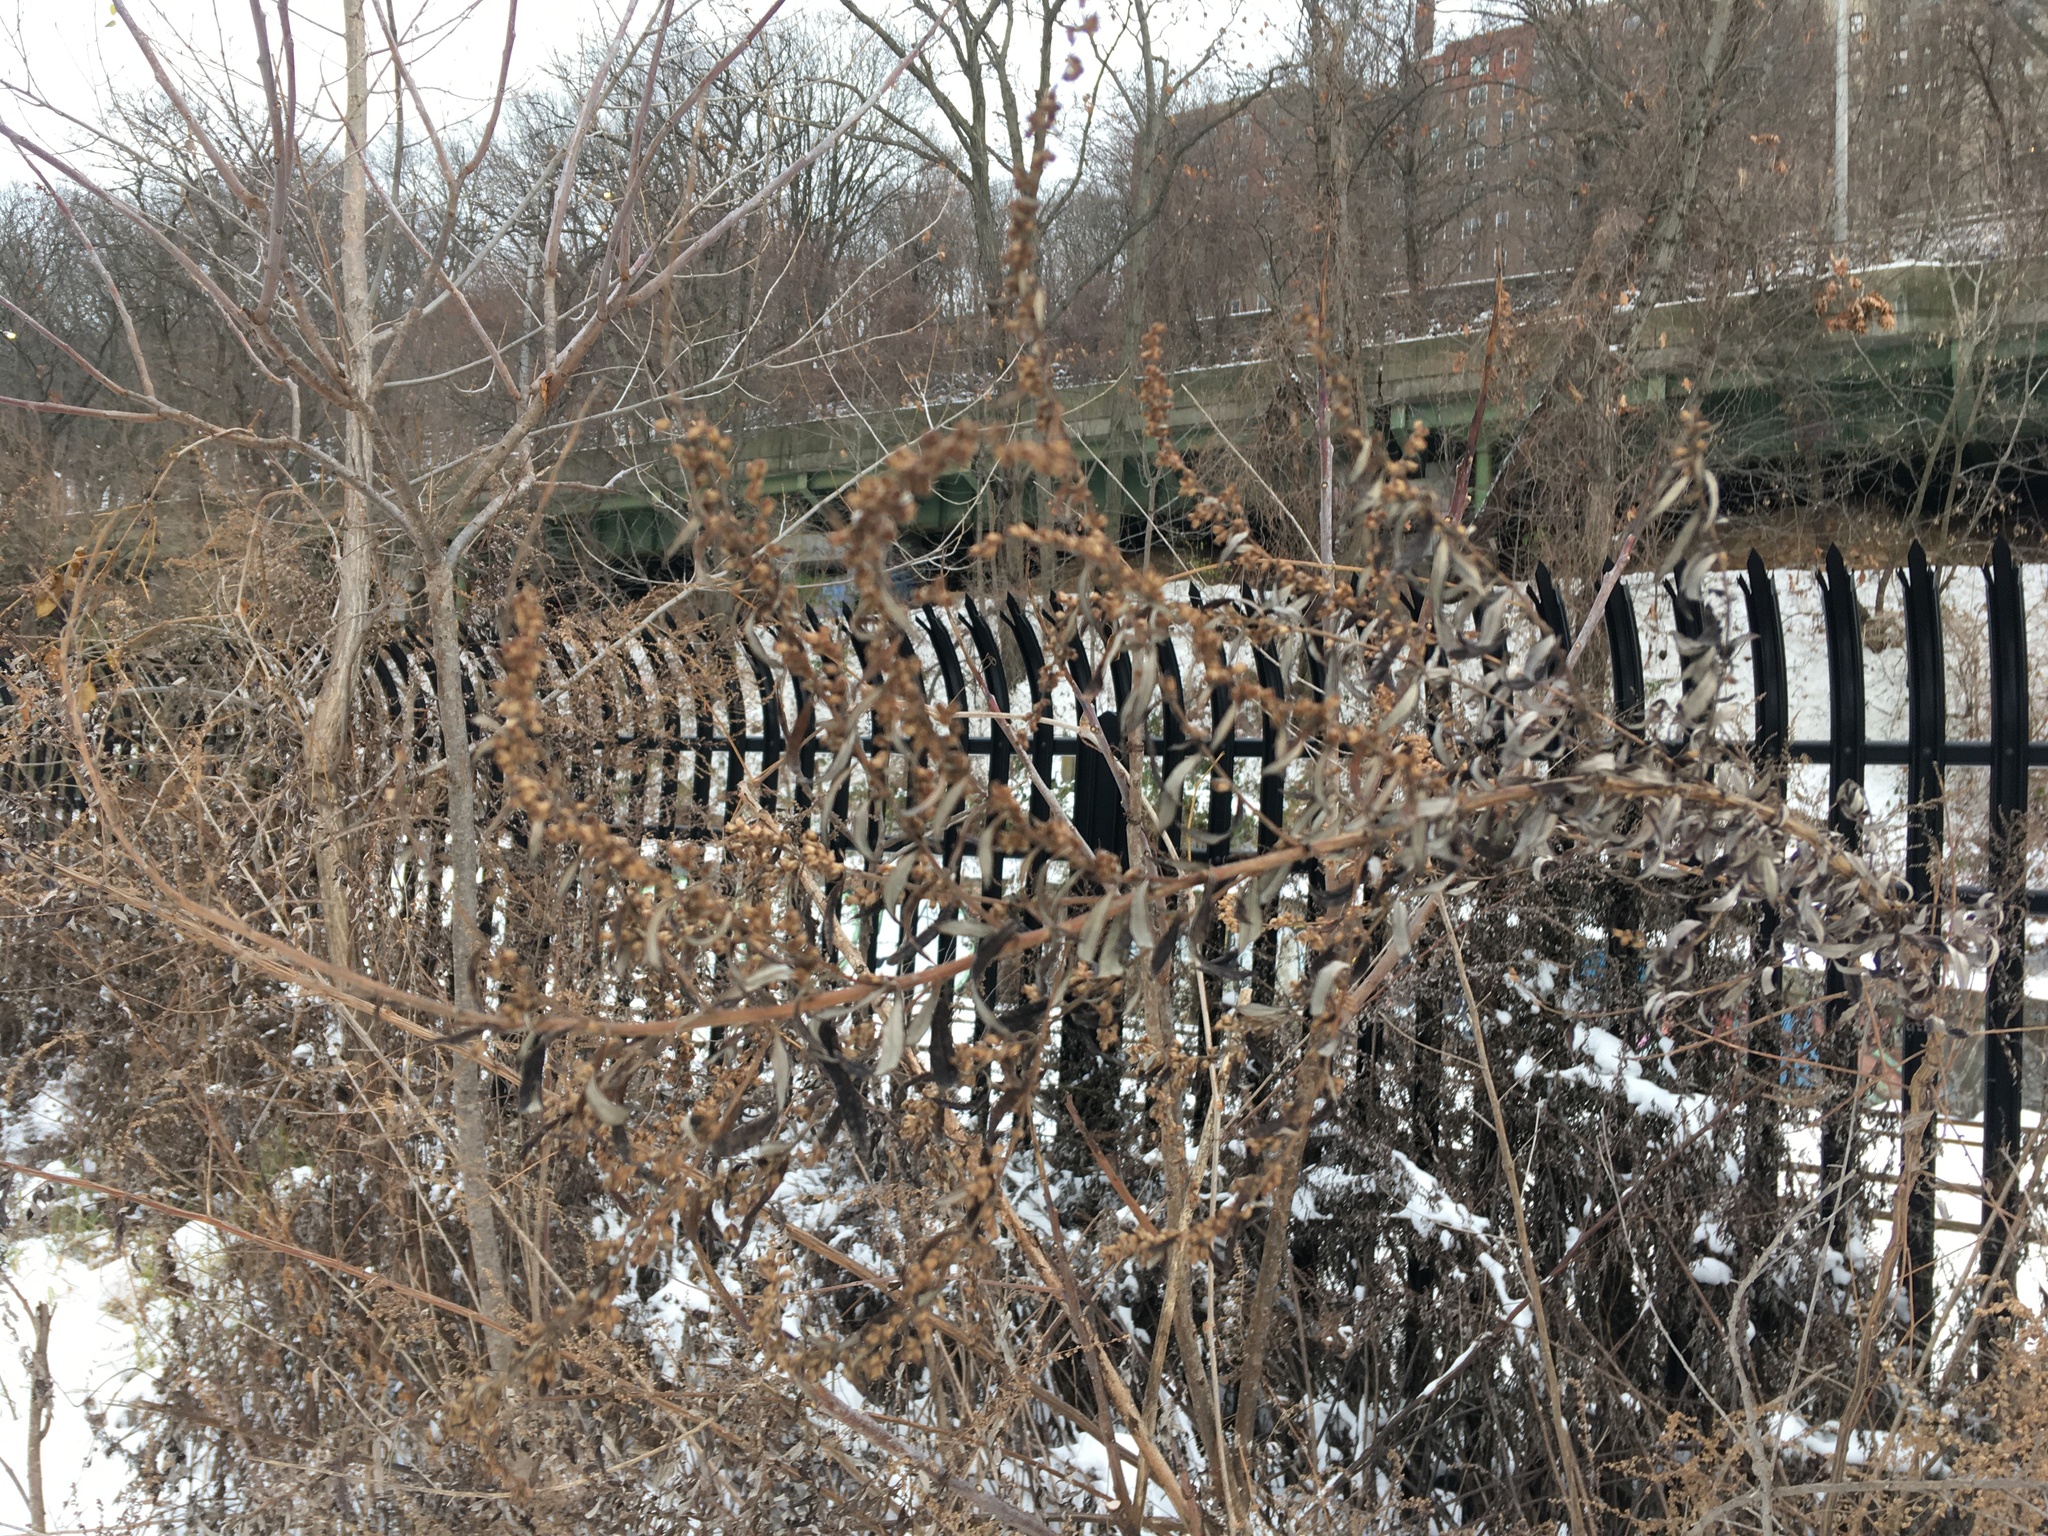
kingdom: Plantae
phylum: Tracheophyta
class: Magnoliopsida
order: Asterales
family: Asteraceae
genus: Artemisia
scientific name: Artemisia vulgaris
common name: Mugwort
